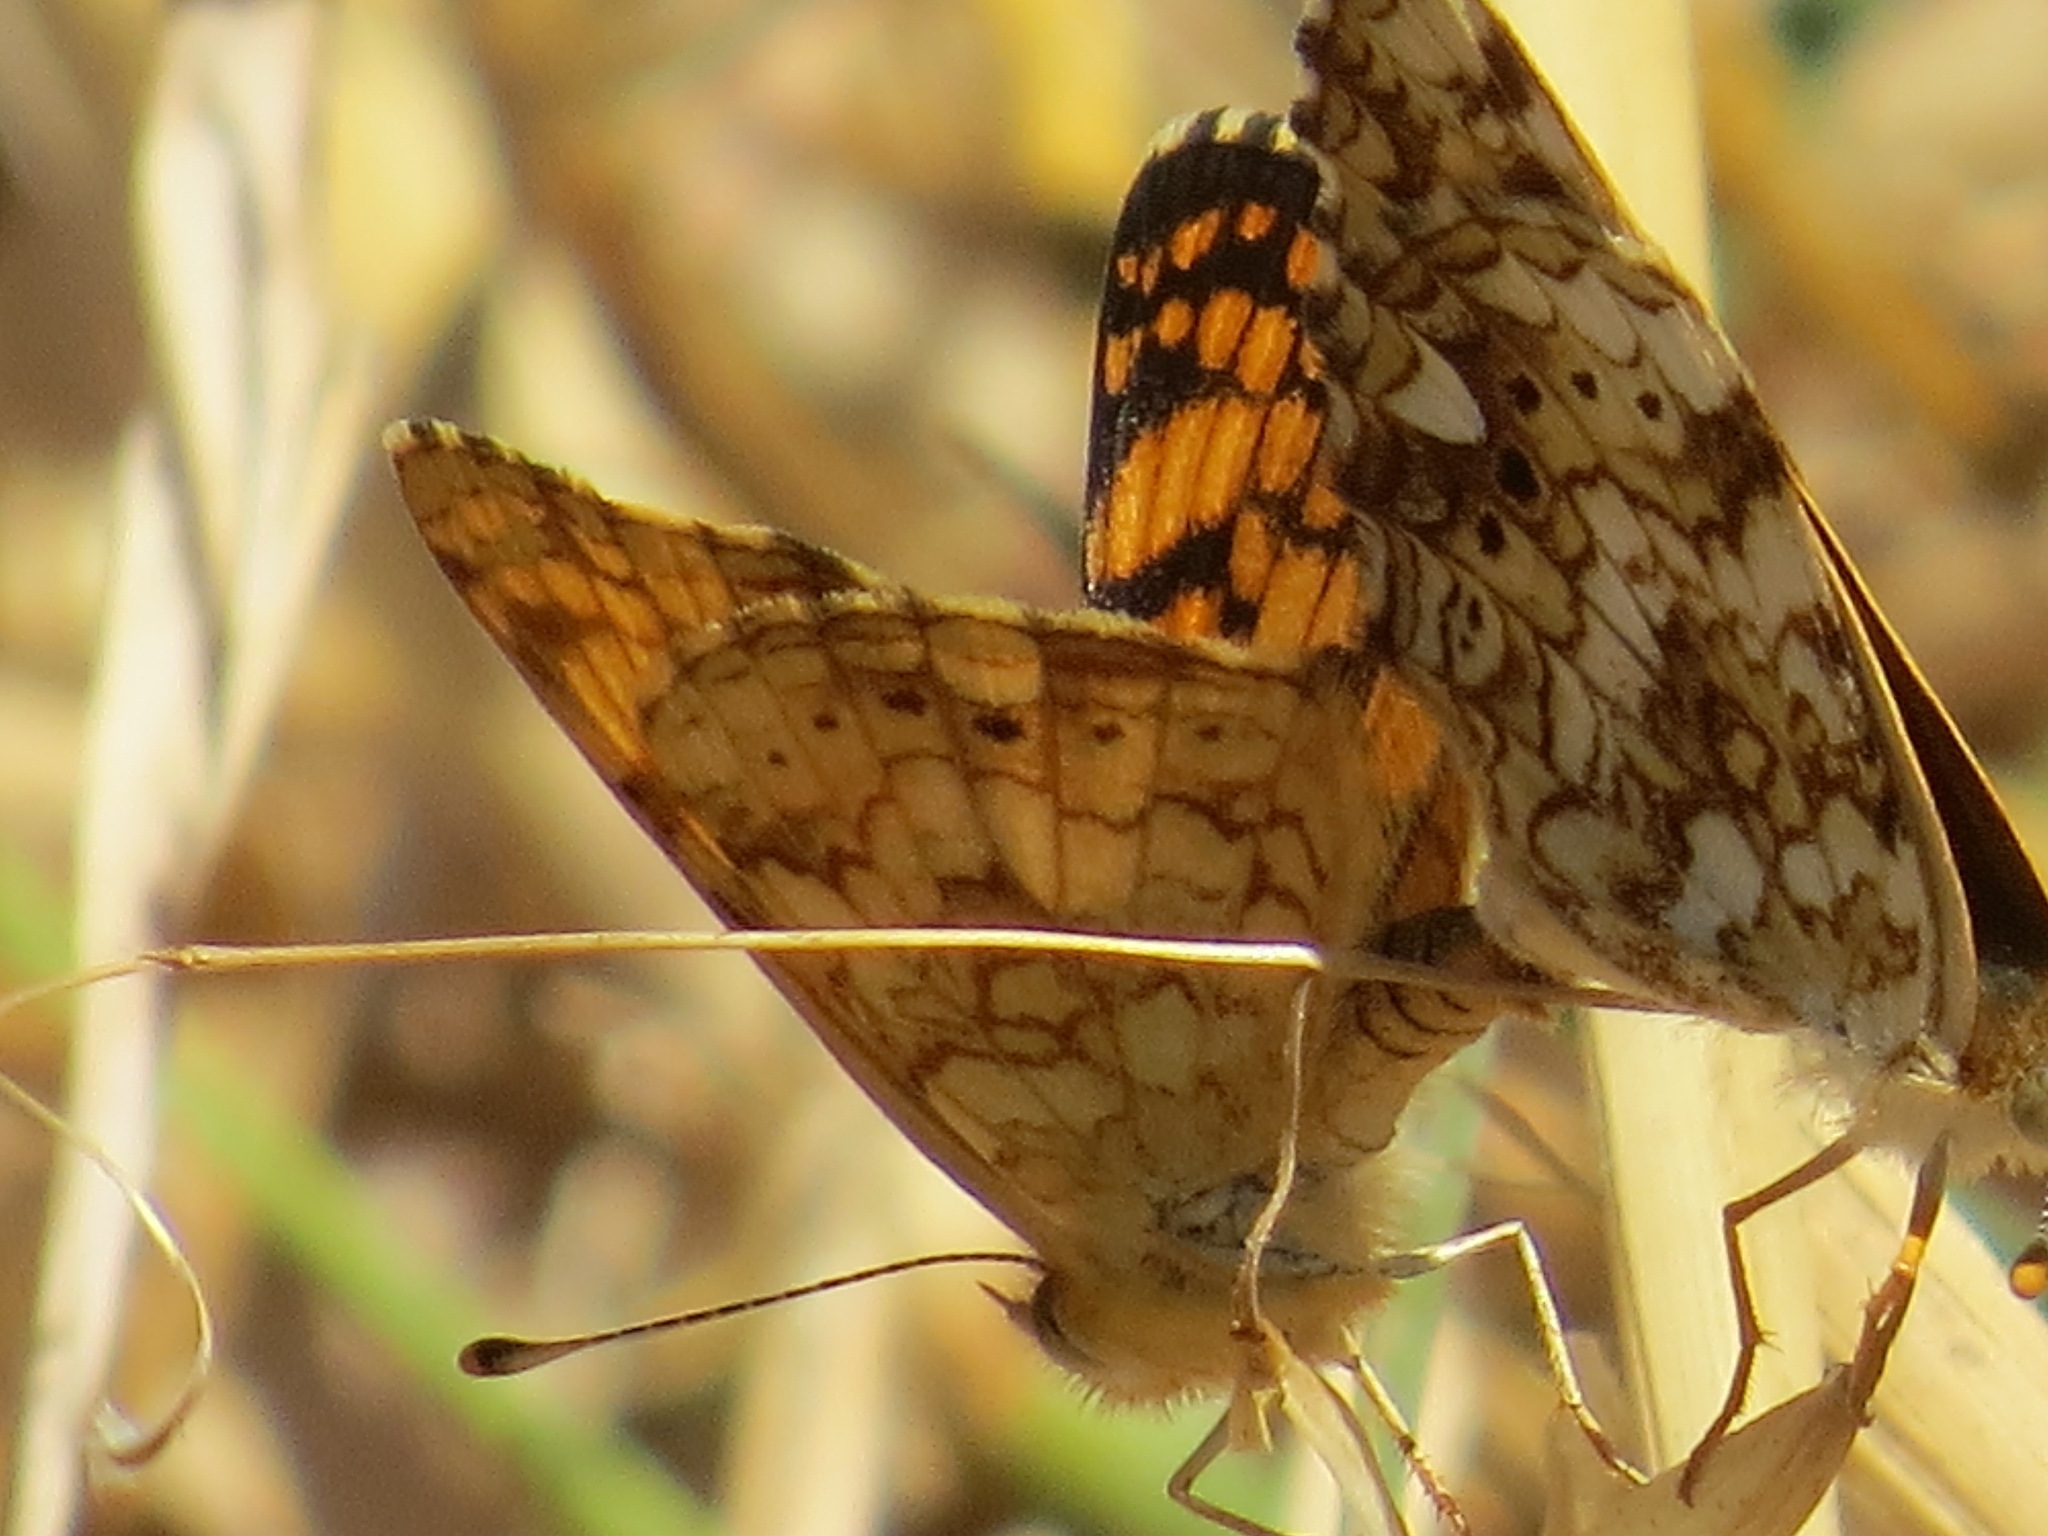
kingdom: Animalia
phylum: Arthropoda
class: Insecta
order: Lepidoptera
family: Nymphalidae
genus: Eresia
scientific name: Eresia aveyrona
